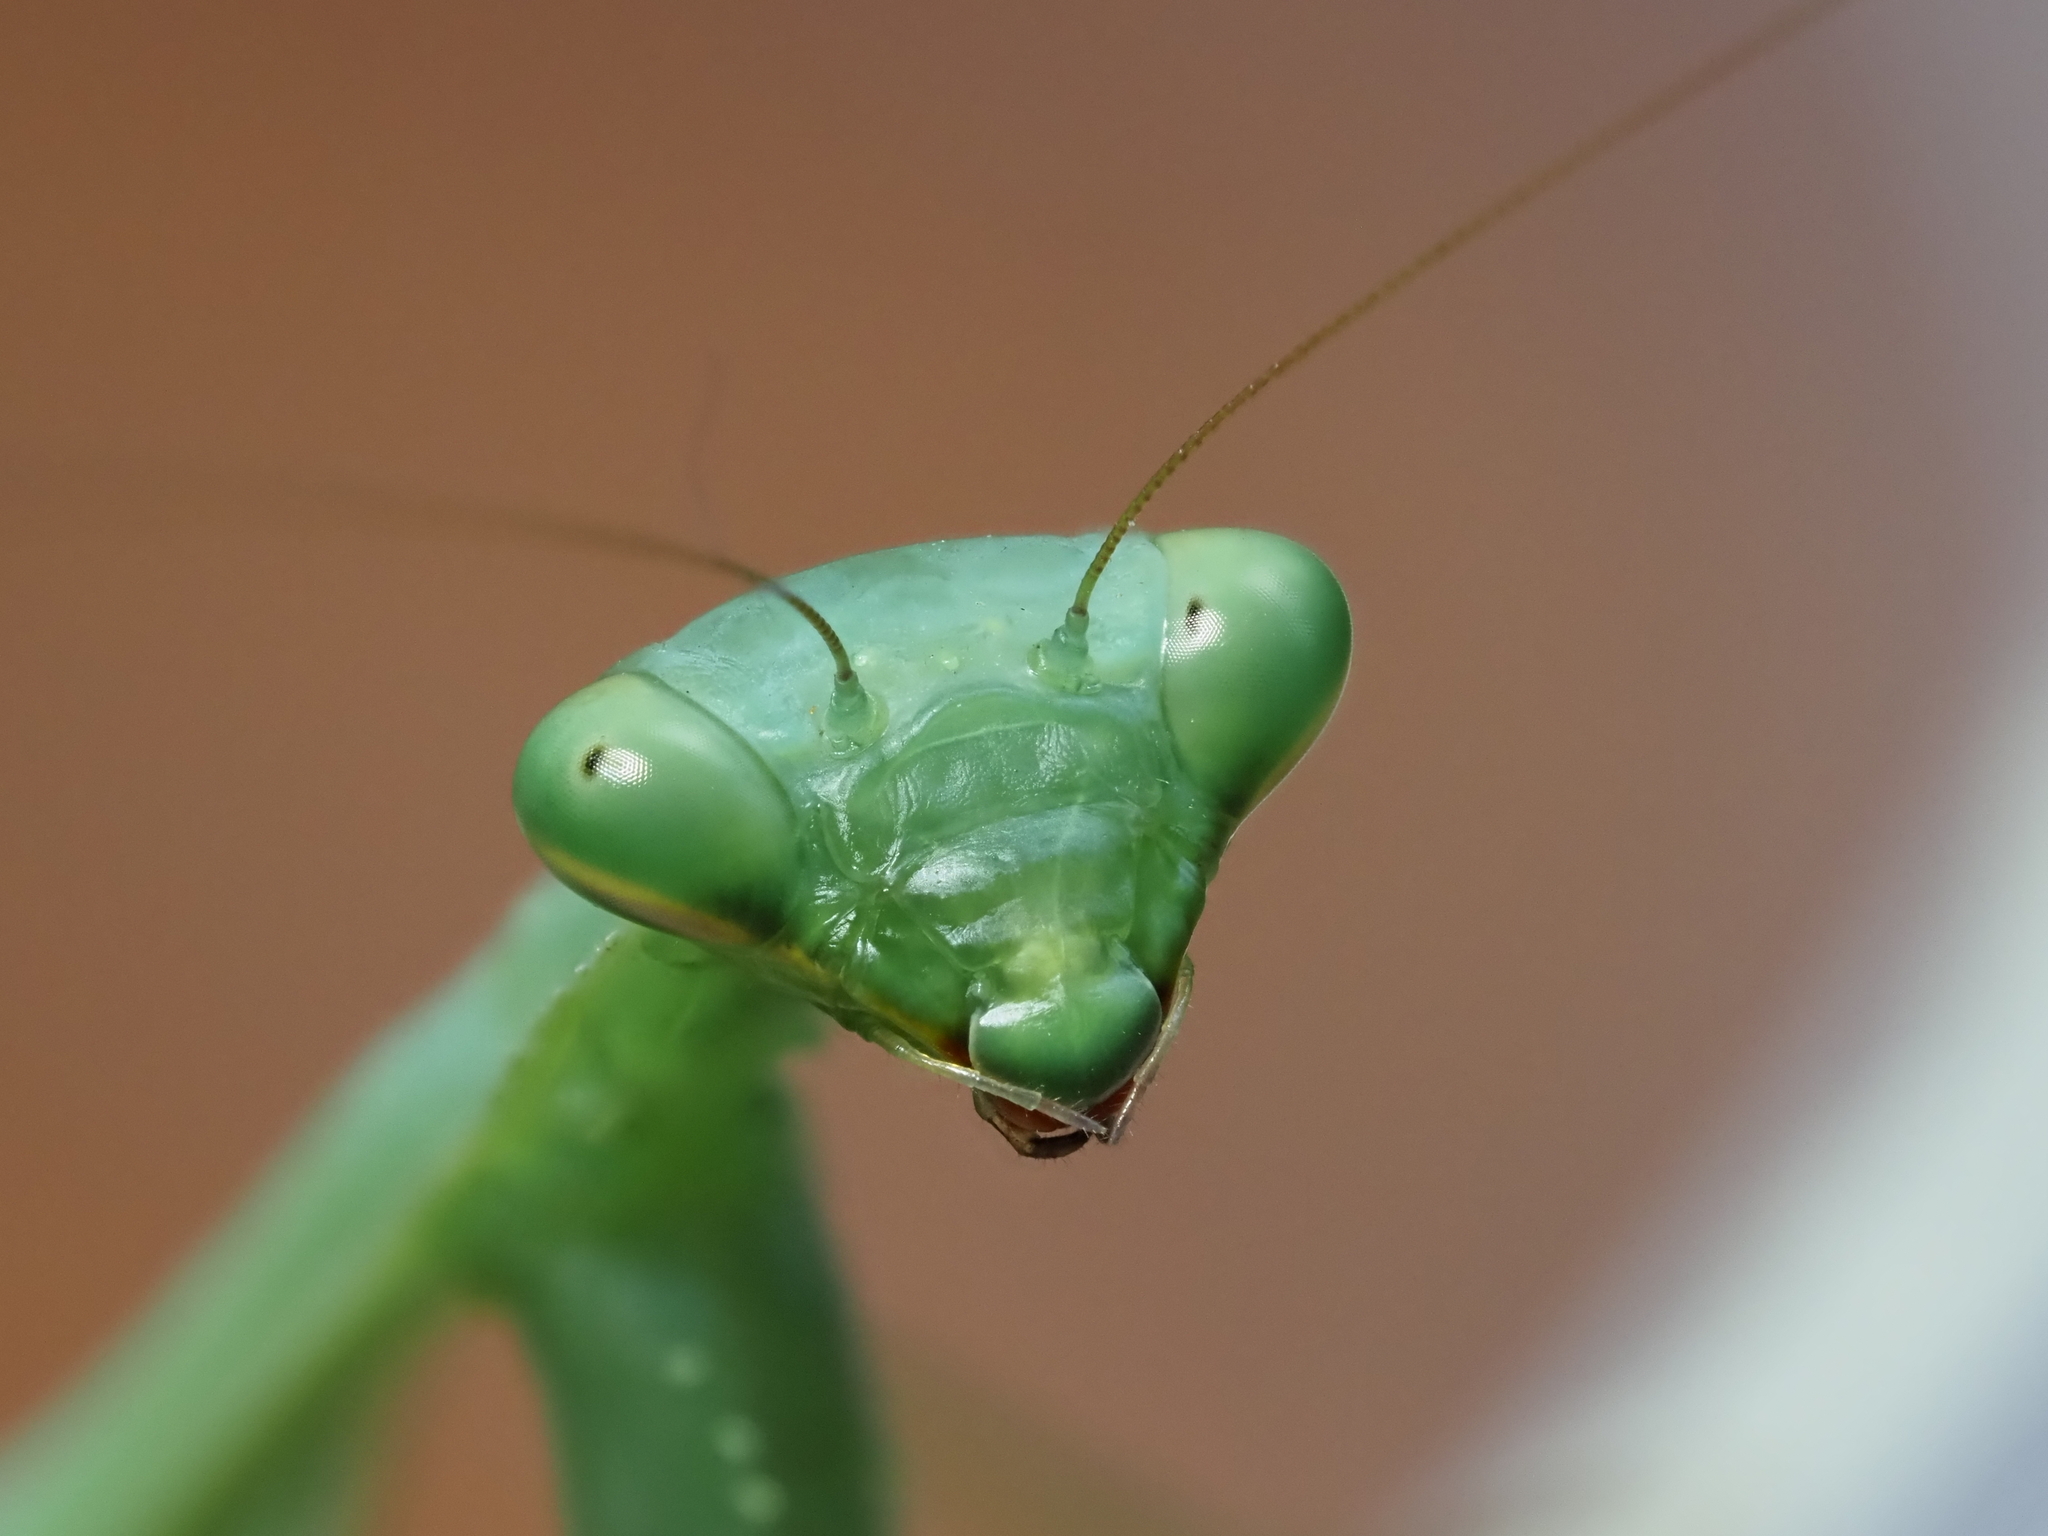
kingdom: Animalia
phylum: Arthropoda
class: Insecta
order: Mantodea
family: Miomantidae
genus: Miomantis
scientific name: Miomantis caffra
